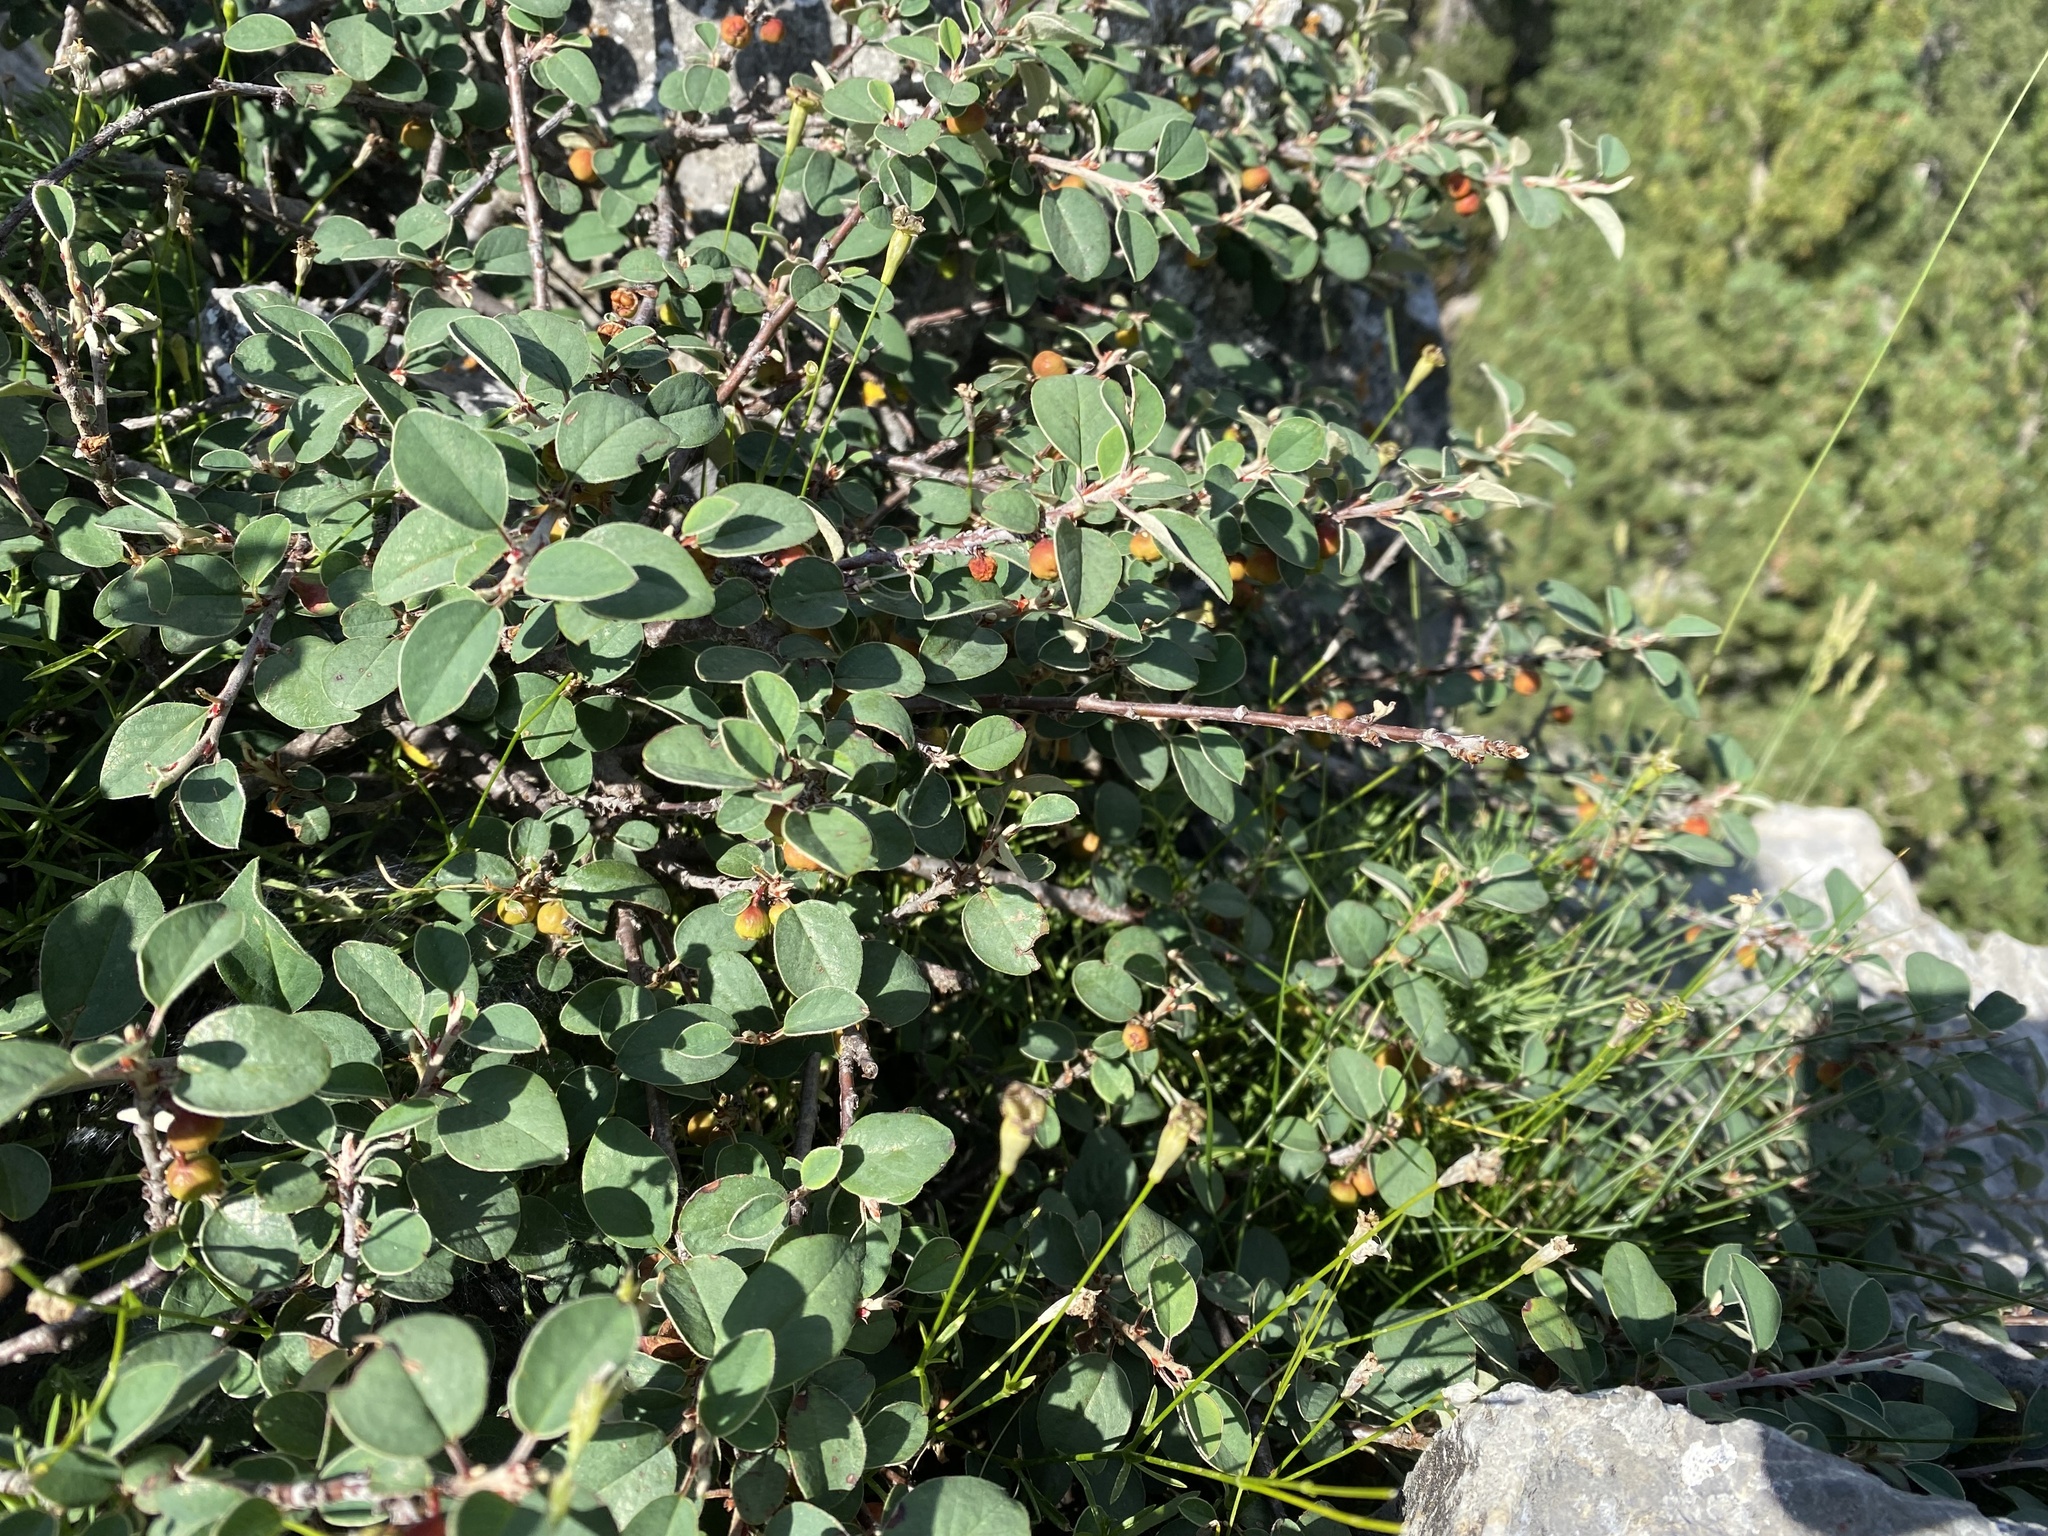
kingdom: Plantae
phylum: Tracheophyta
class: Magnoliopsida
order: Rosales
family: Rosaceae
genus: Cotoneaster
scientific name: Cotoneaster integerrimus
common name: Wild cotoneaster
